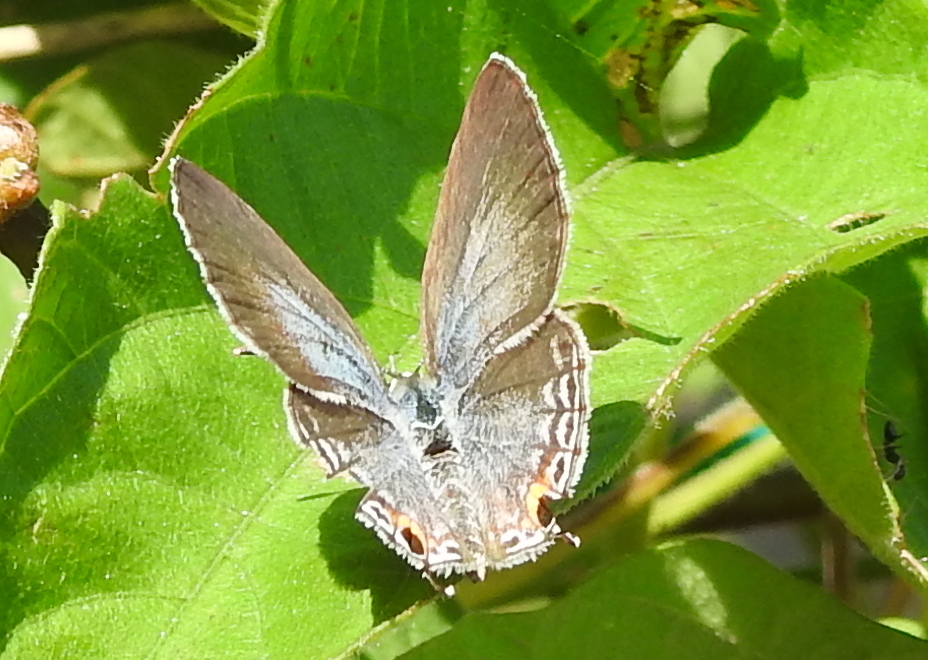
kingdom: Animalia
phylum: Arthropoda
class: Insecta
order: Lepidoptera
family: Lycaenidae
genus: Luthrodes
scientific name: Luthrodes pandava
